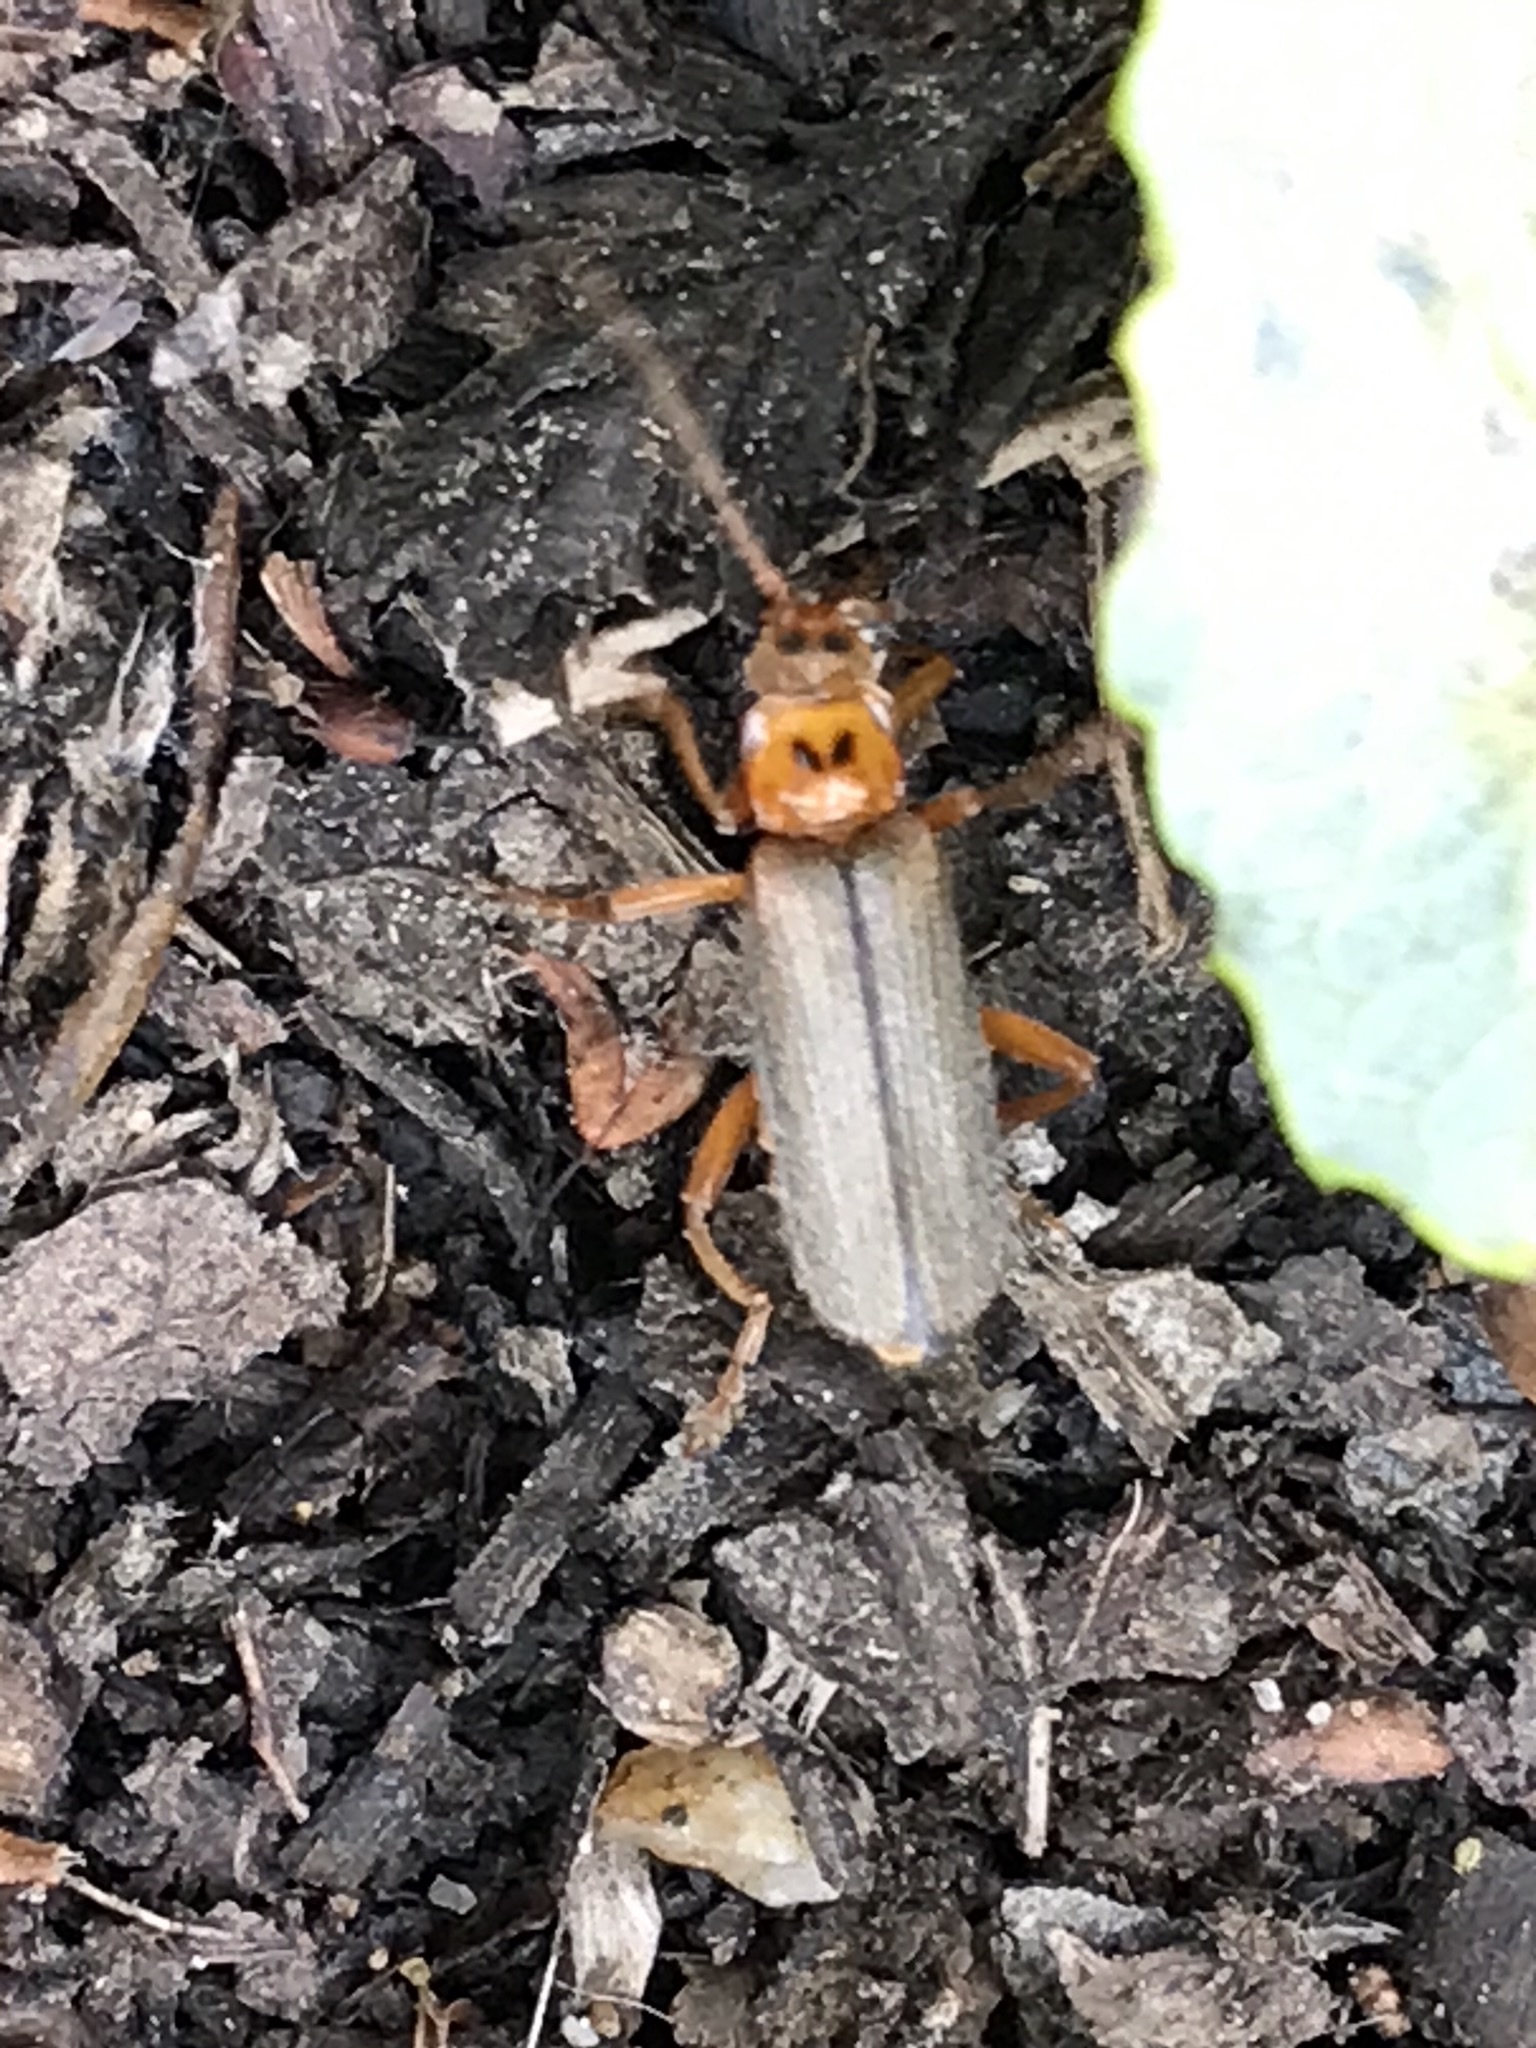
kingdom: Animalia
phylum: Arthropoda
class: Insecta
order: Coleoptera
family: Cantharidae
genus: Cultellunguis
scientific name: Cultellunguis americanus
